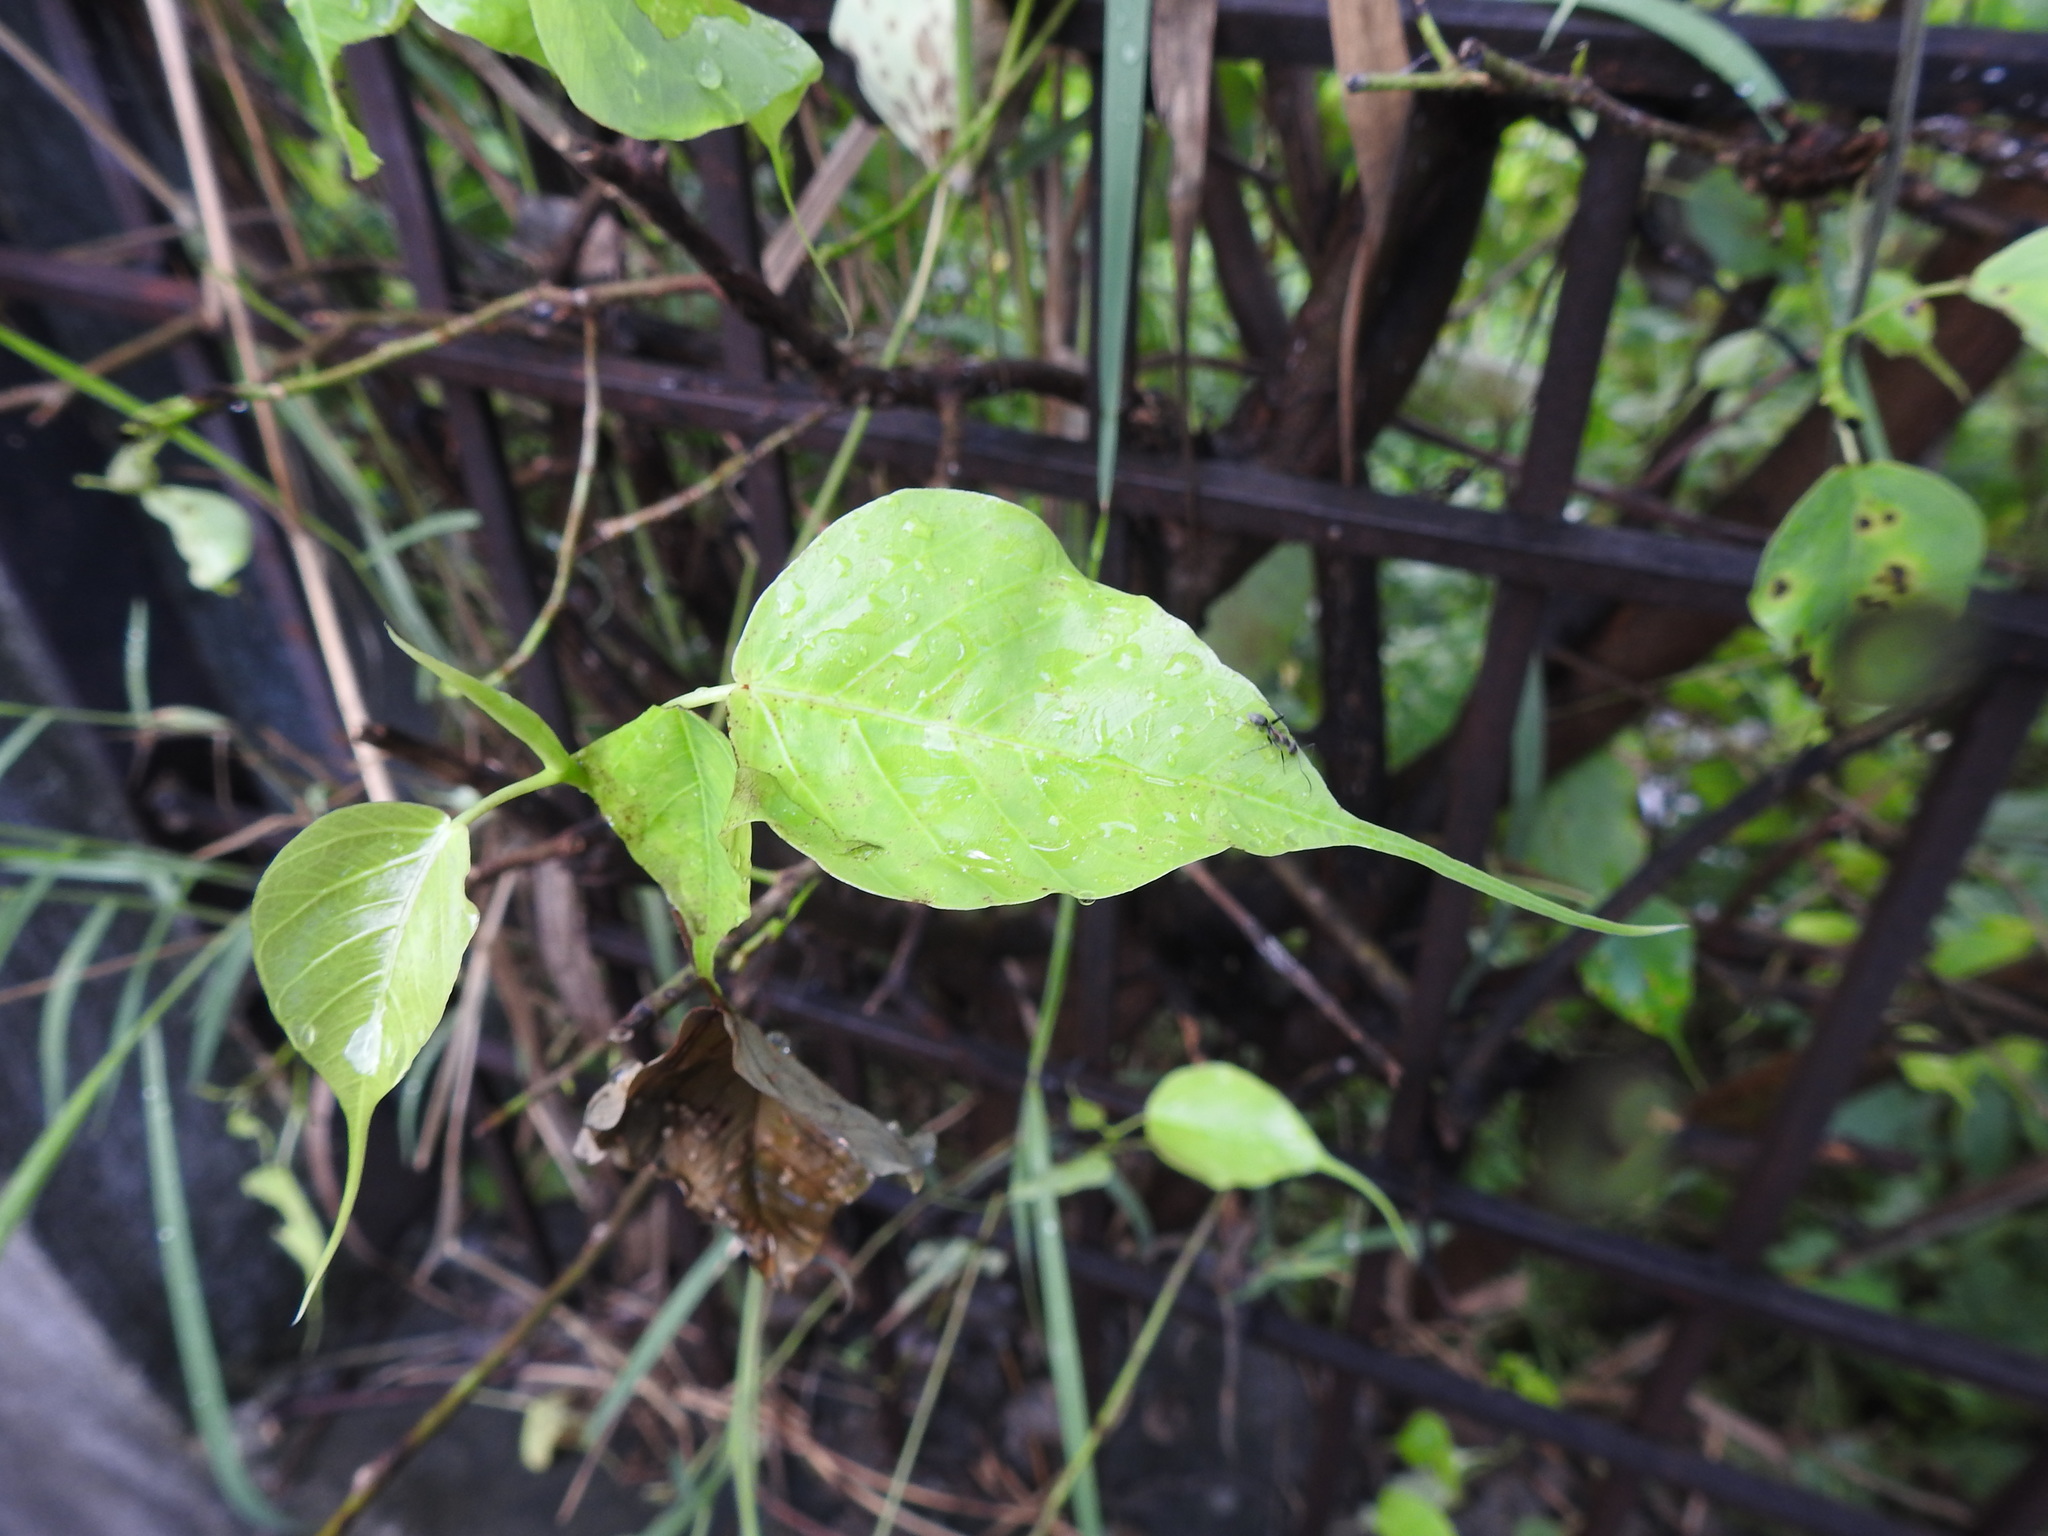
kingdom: Plantae
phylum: Tracheophyta
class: Magnoliopsida
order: Rosales
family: Moraceae
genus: Ficus
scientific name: Ficus religiosa
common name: Bodhi tree
